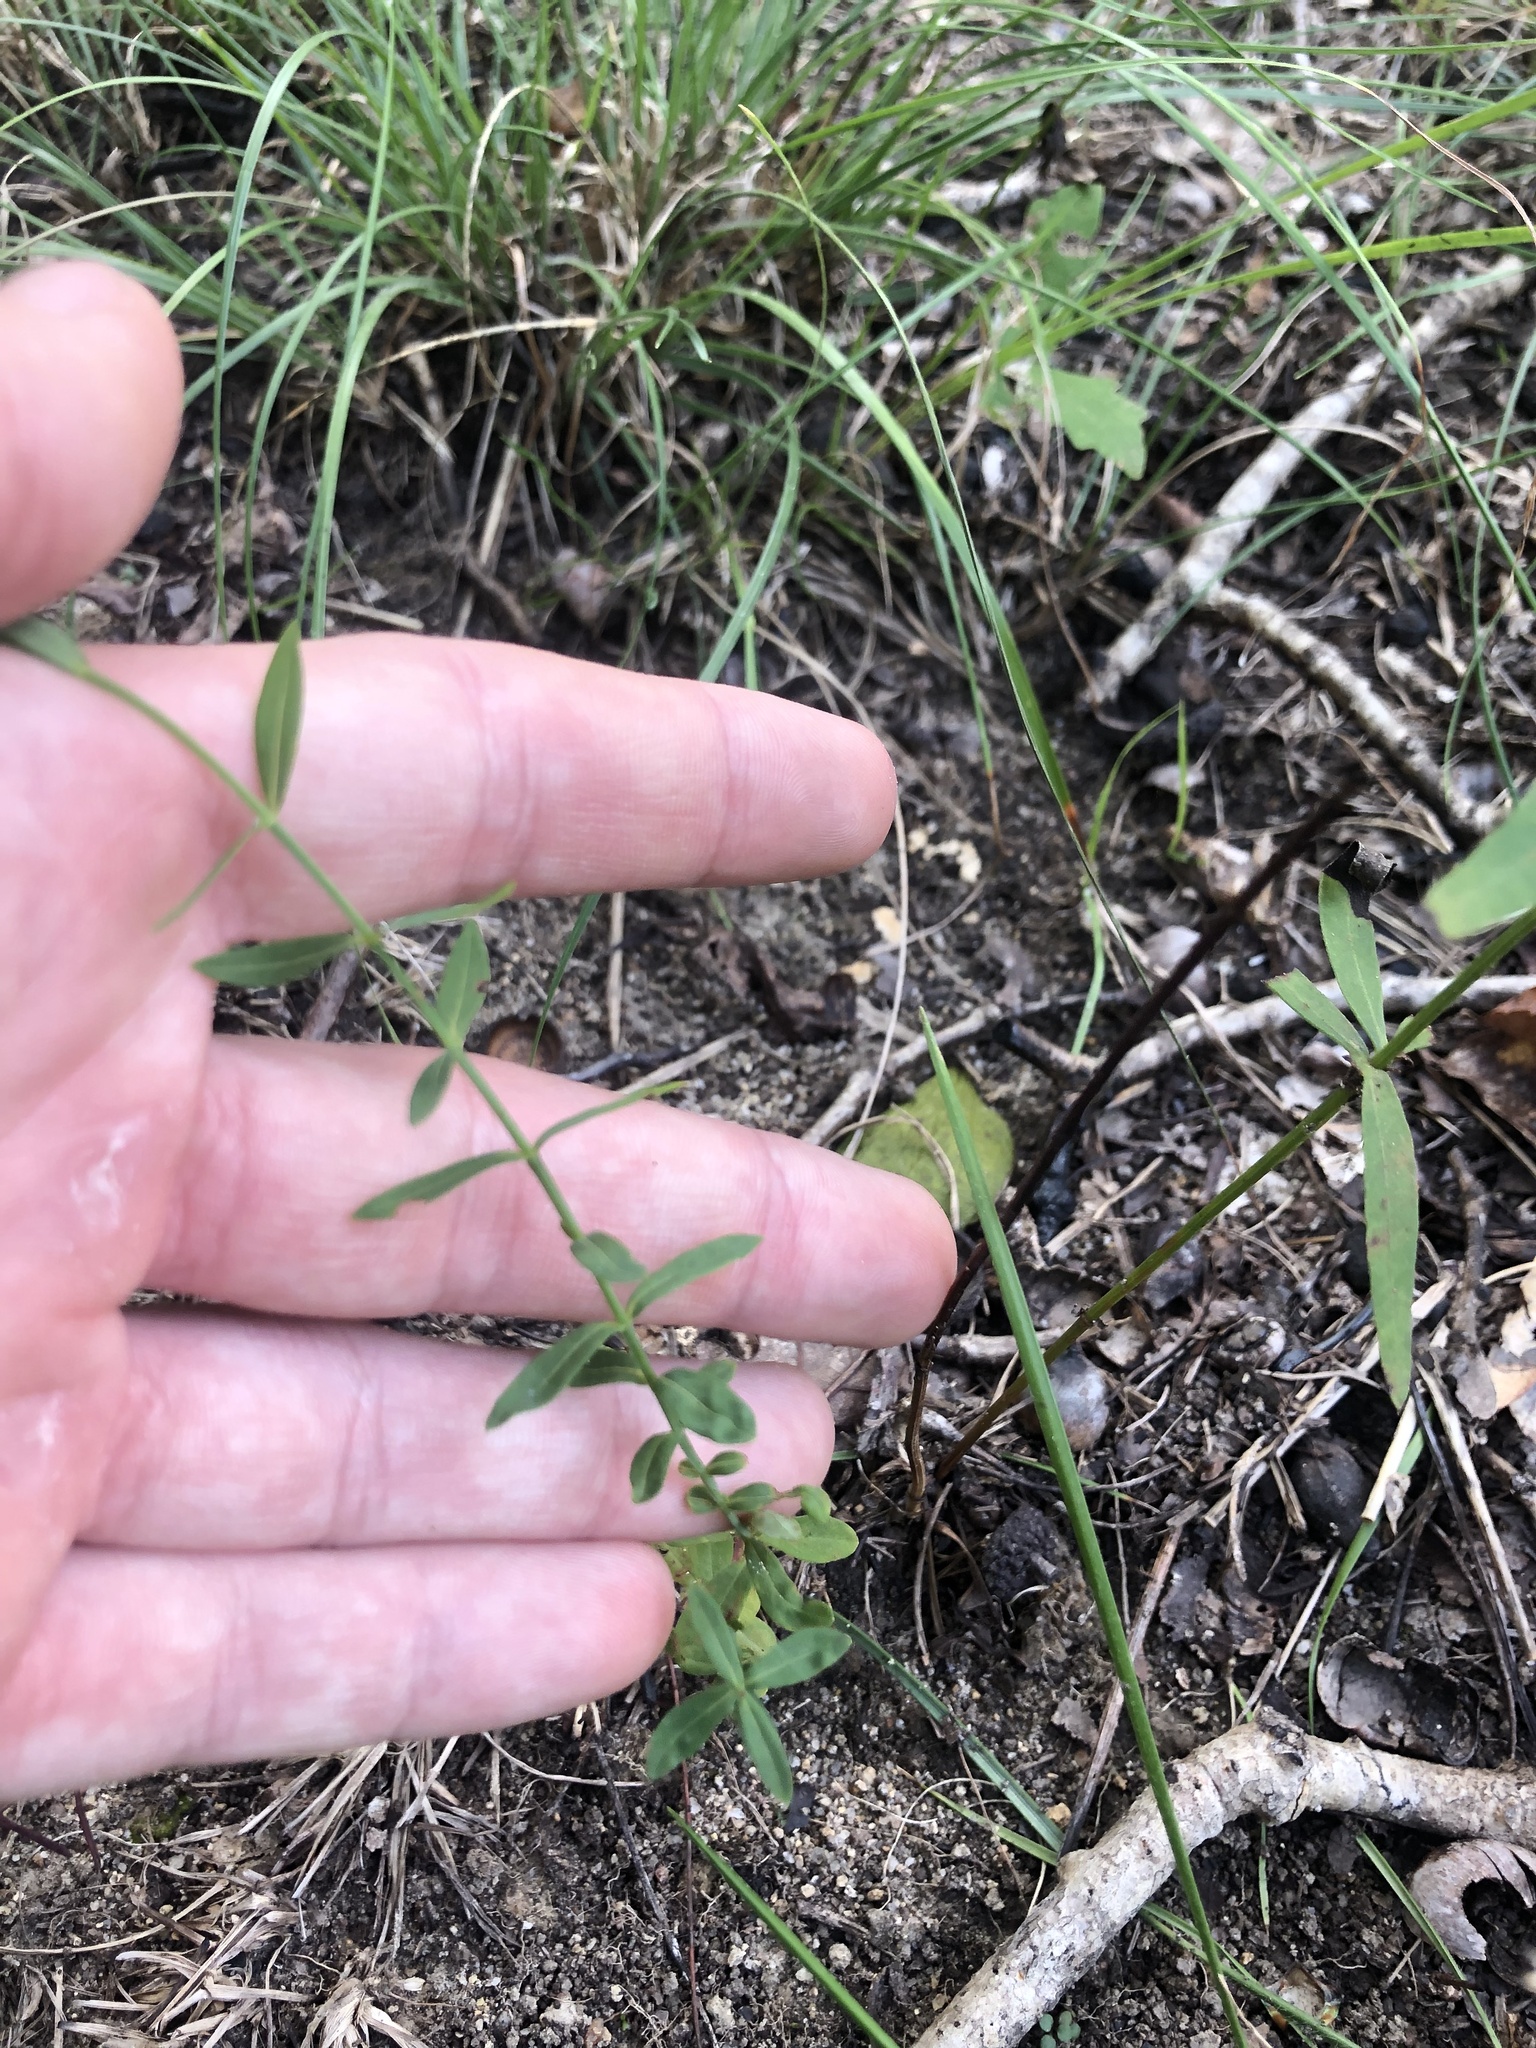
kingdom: Plantae
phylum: Tracheophyta
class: Magnoliopsida
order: Malpighiales
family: Hypericaceae
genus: Hypericum
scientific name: Hypericum virgatum
